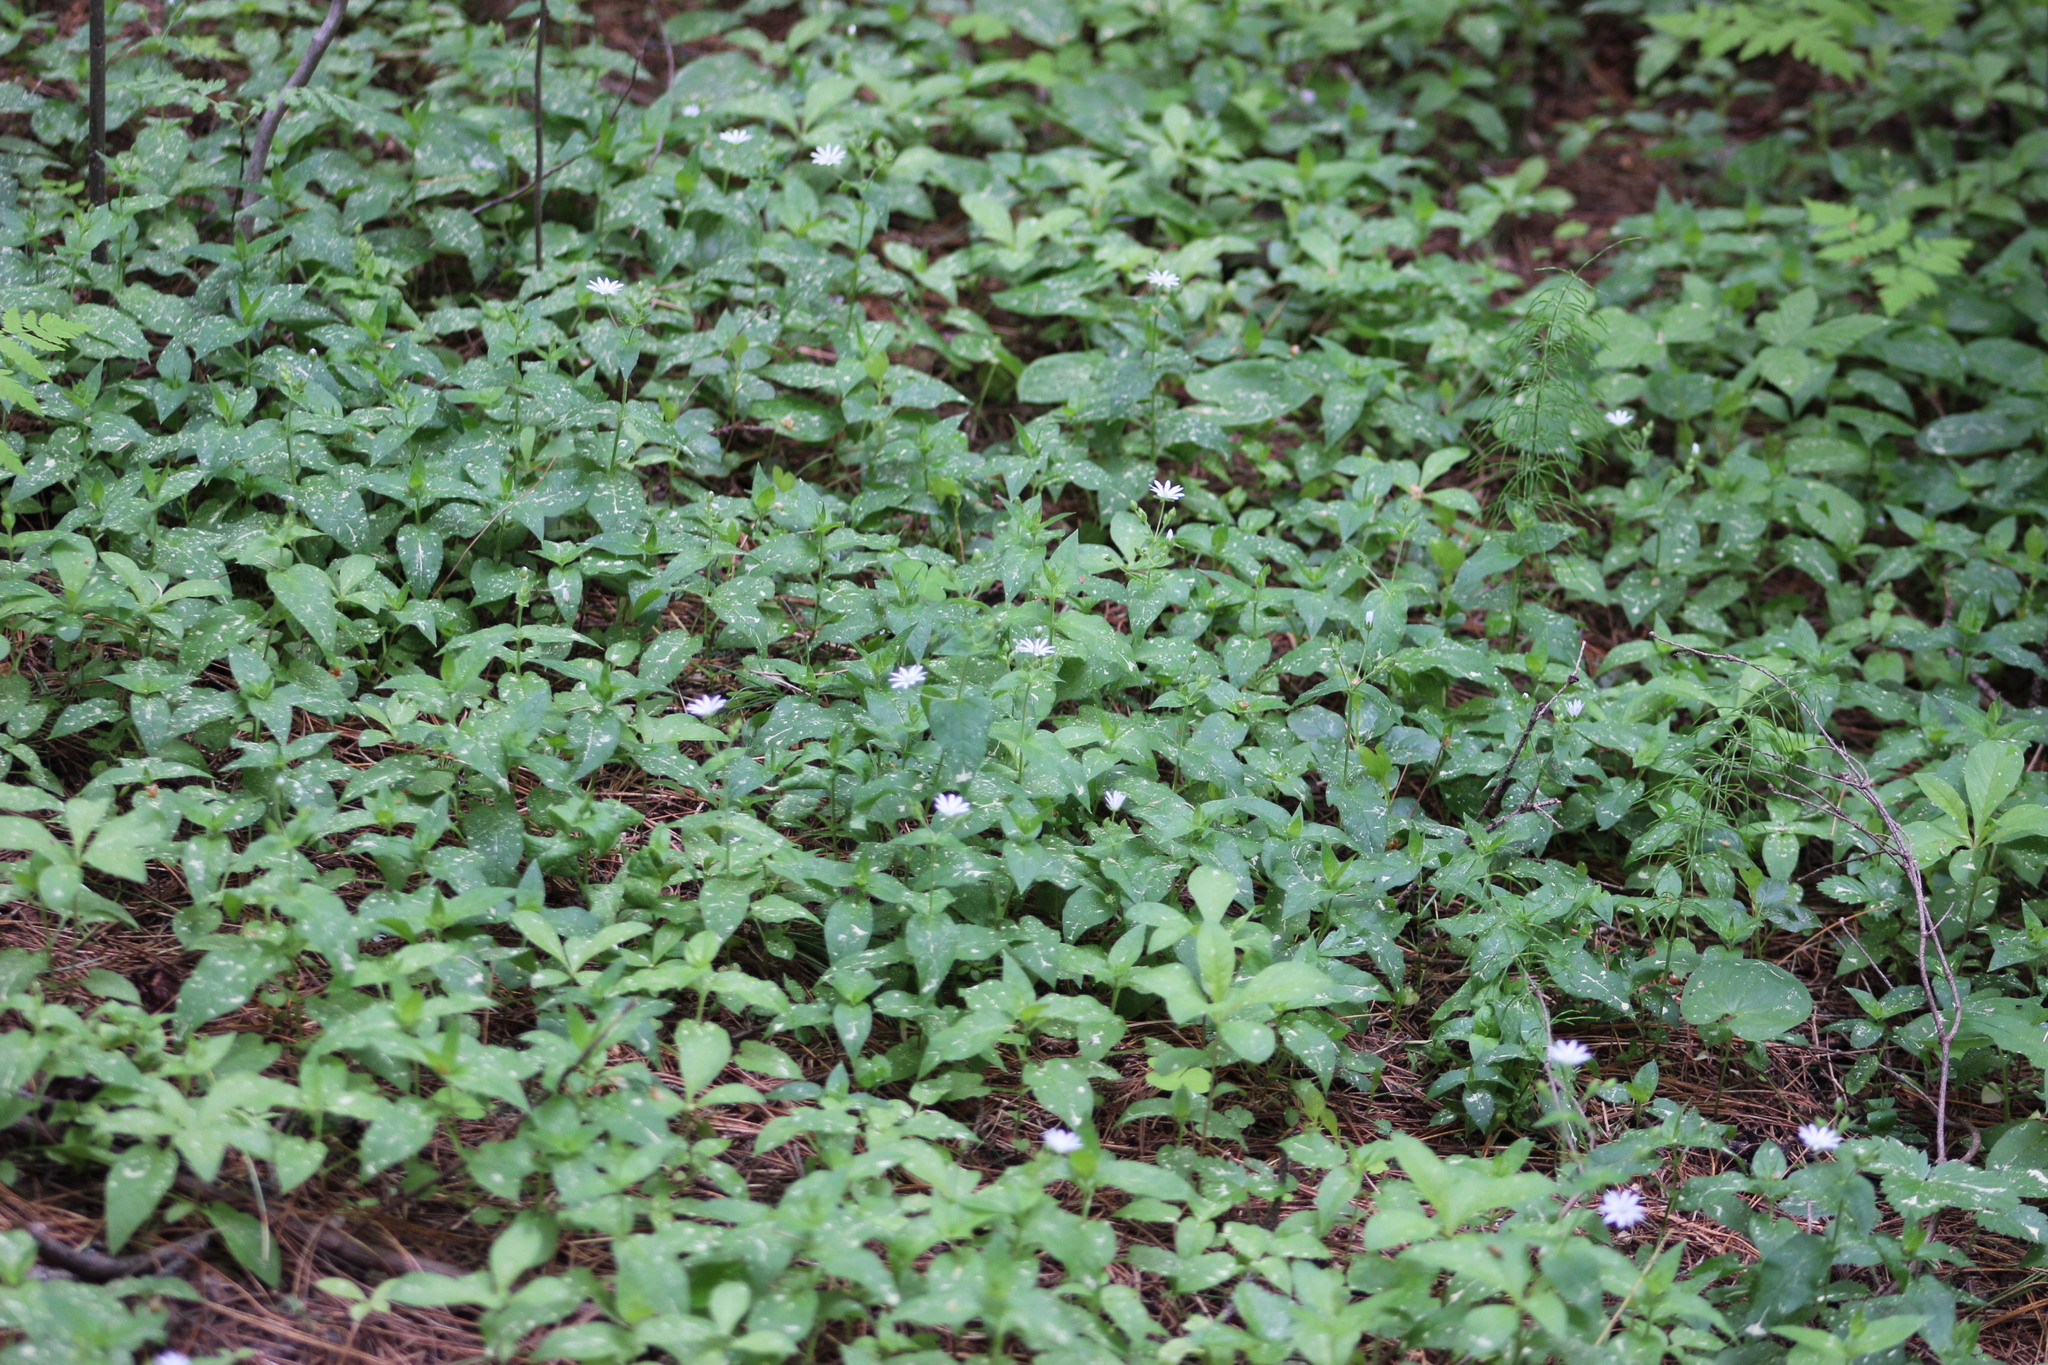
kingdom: Plantae
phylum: Tracheophyta
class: Magnoliopsida
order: Caryophyllales
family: Caryophyllaceae
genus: Stellaria
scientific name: Stellaria bungeana
